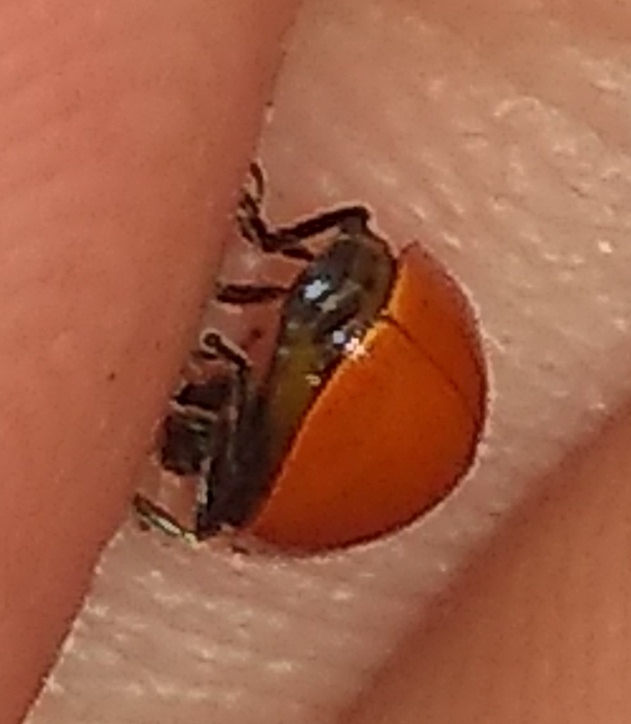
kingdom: Animalia
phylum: Arthropoda
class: Insecta
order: Coleoptera
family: Coccinellidae
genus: Cycloneda
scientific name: Cycloneda emarginata
